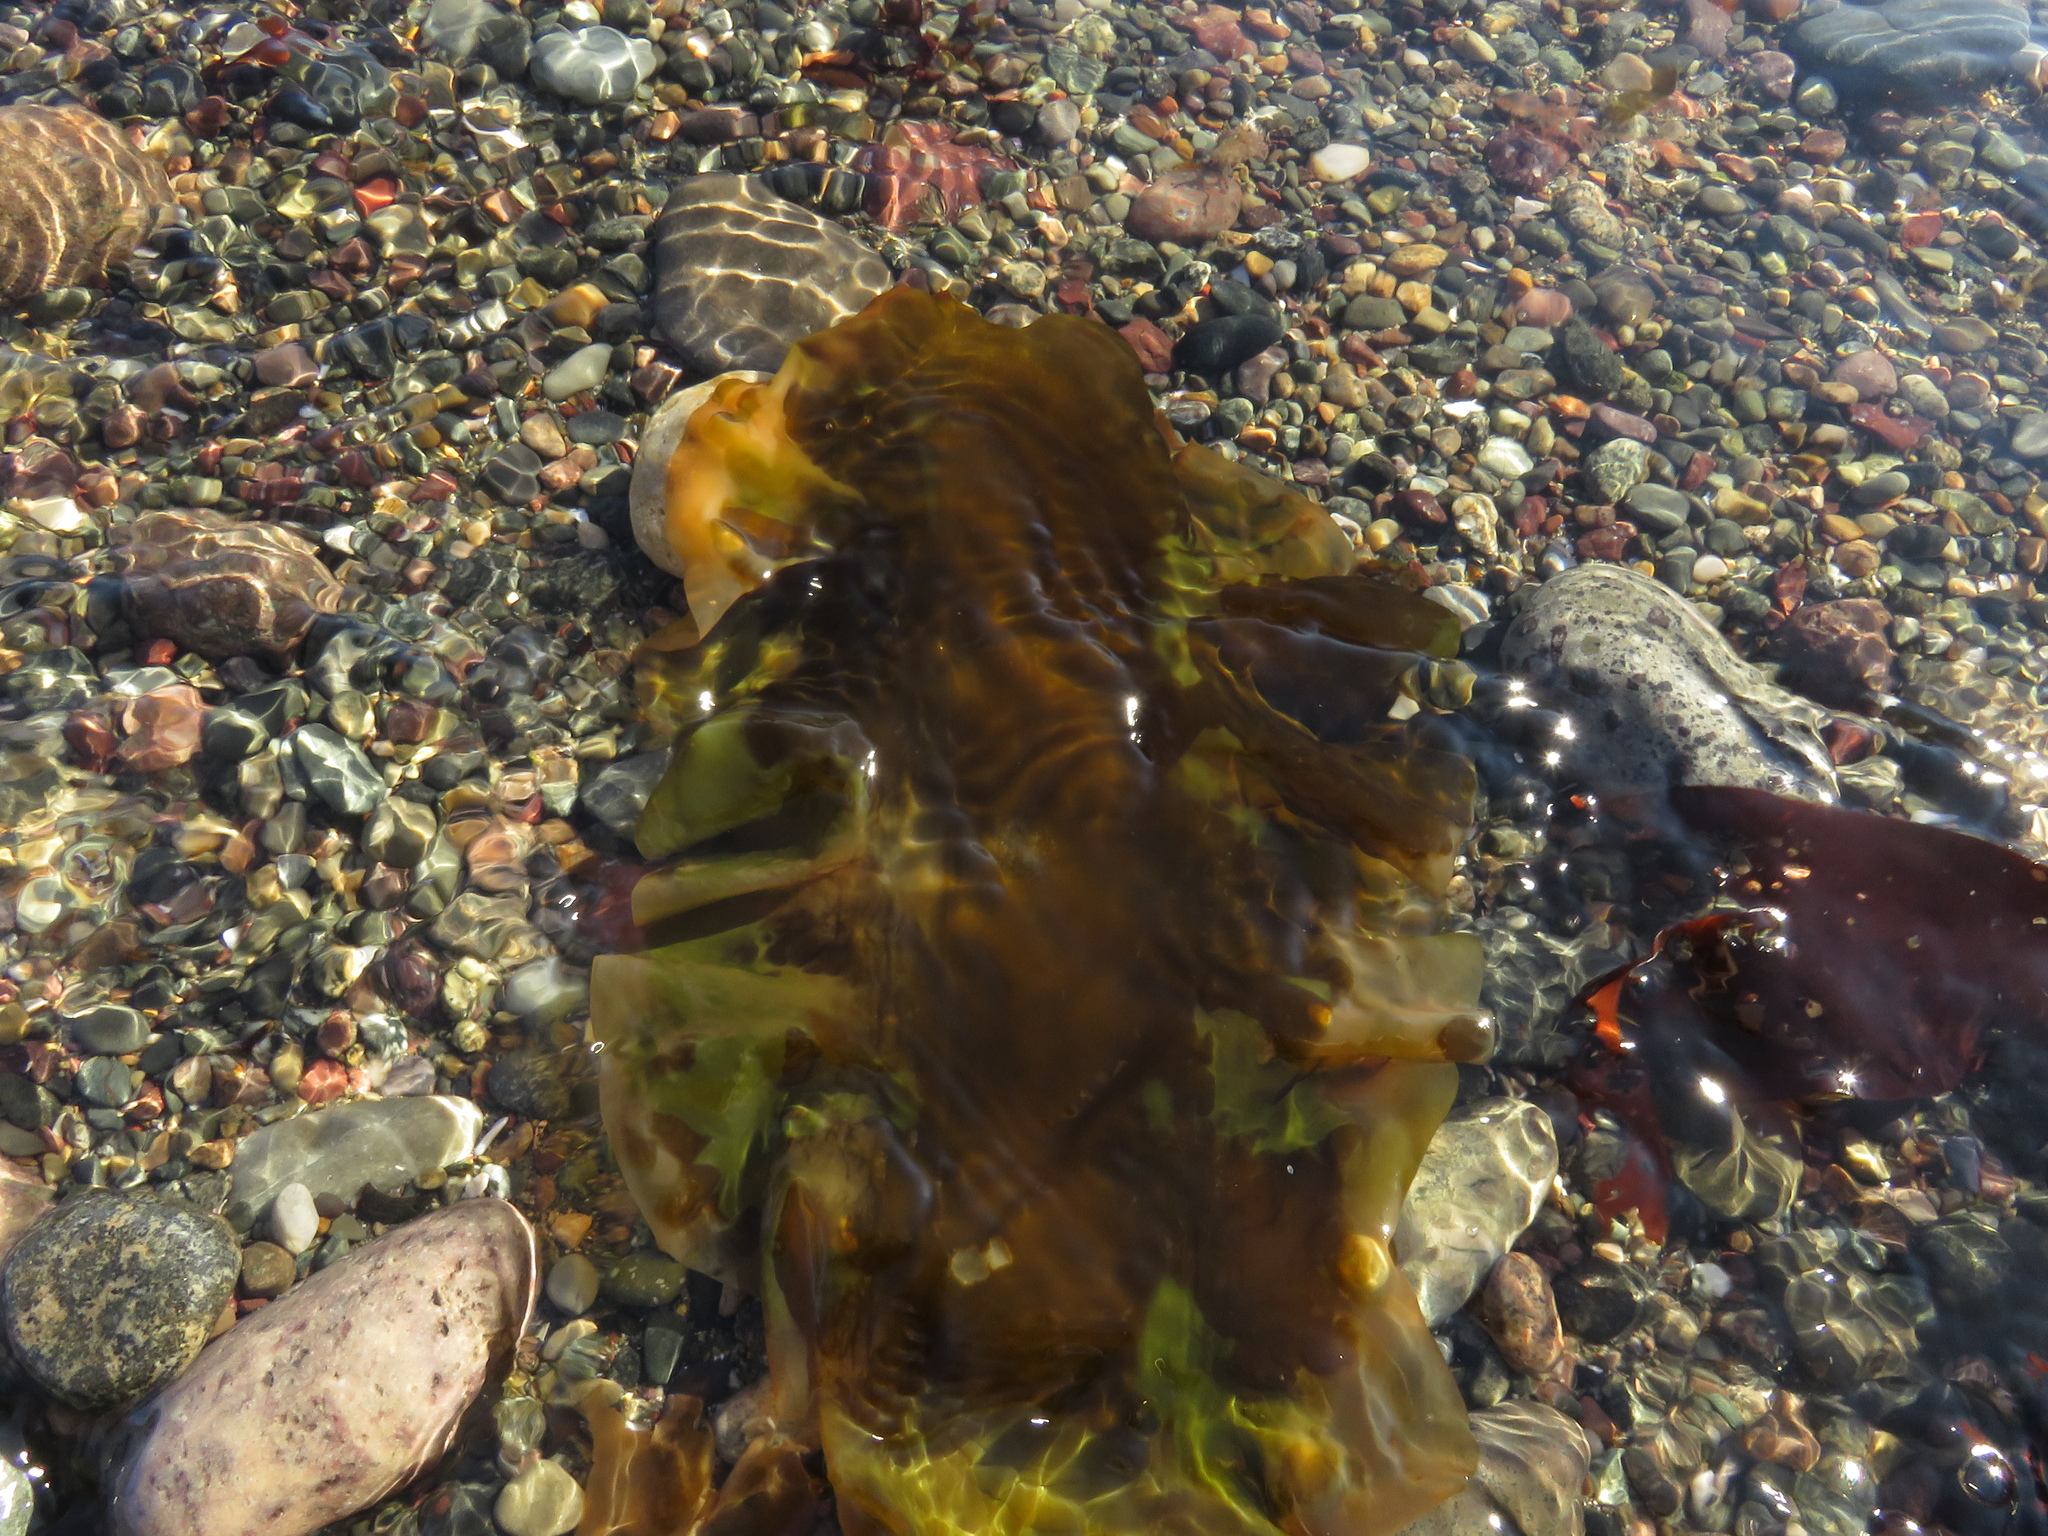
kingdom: Chromista
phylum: Ochrophyta
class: Phaeophyceae
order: Laminariales
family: Laminariaceae
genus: Saccharina
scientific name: Saccharina latissima
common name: Poor man's weather glass
